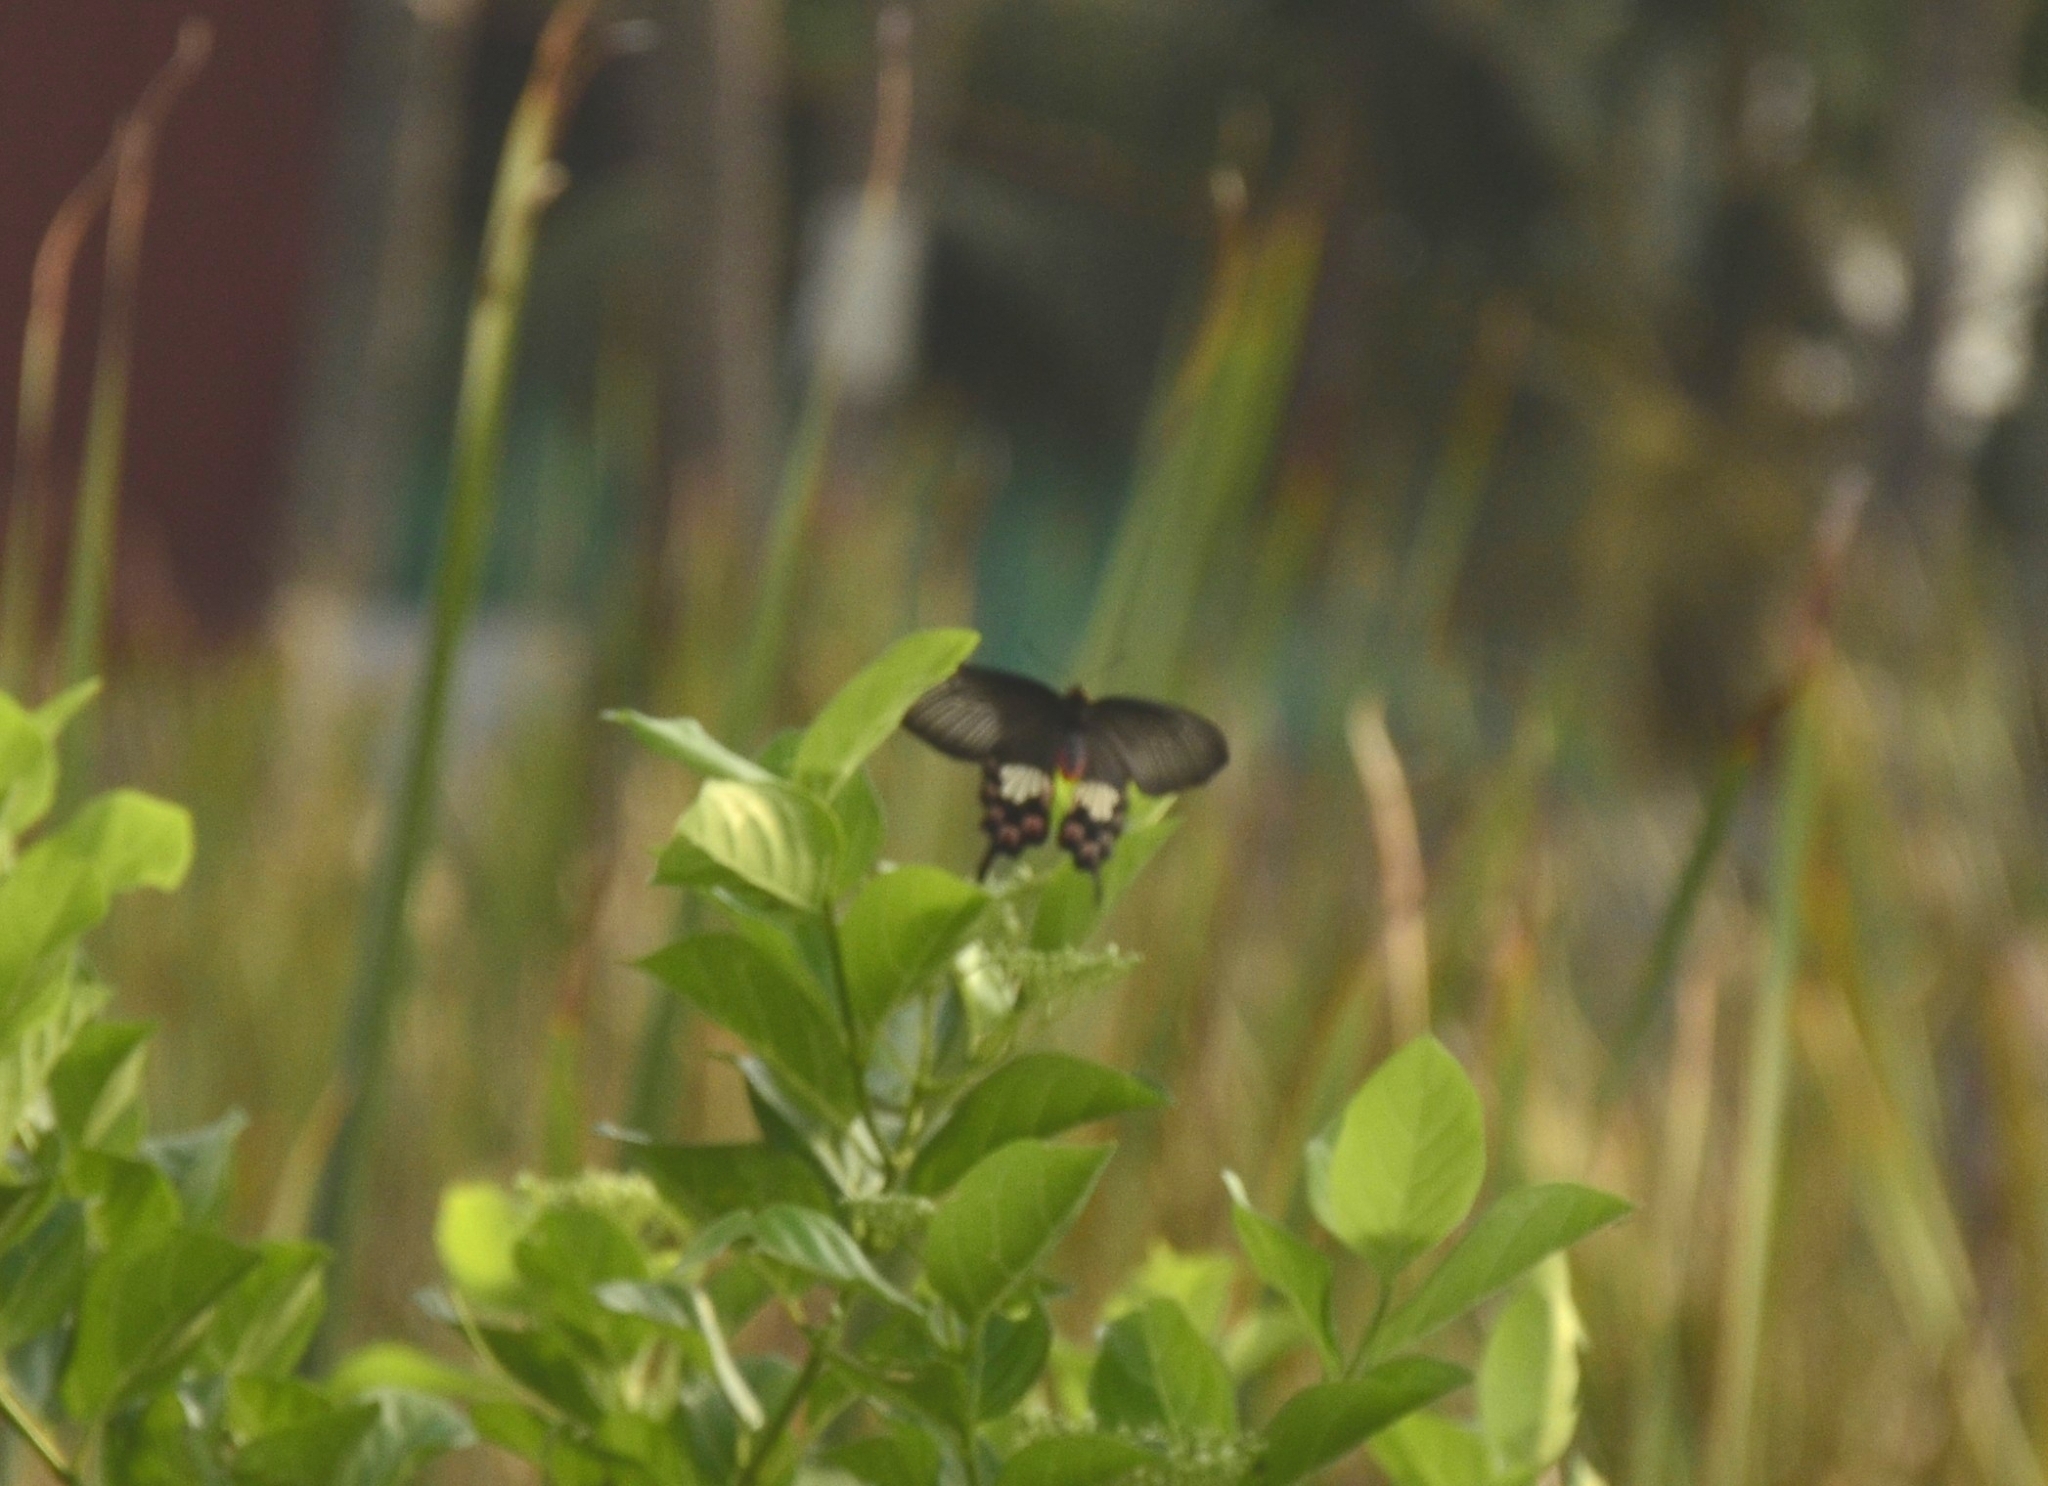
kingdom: Animalia
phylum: Arthropoda
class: Insecta
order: Lepidoptera
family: Papilionidae
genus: Pachliopta
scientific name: Pachliopta aristolochiae
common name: Common rose
